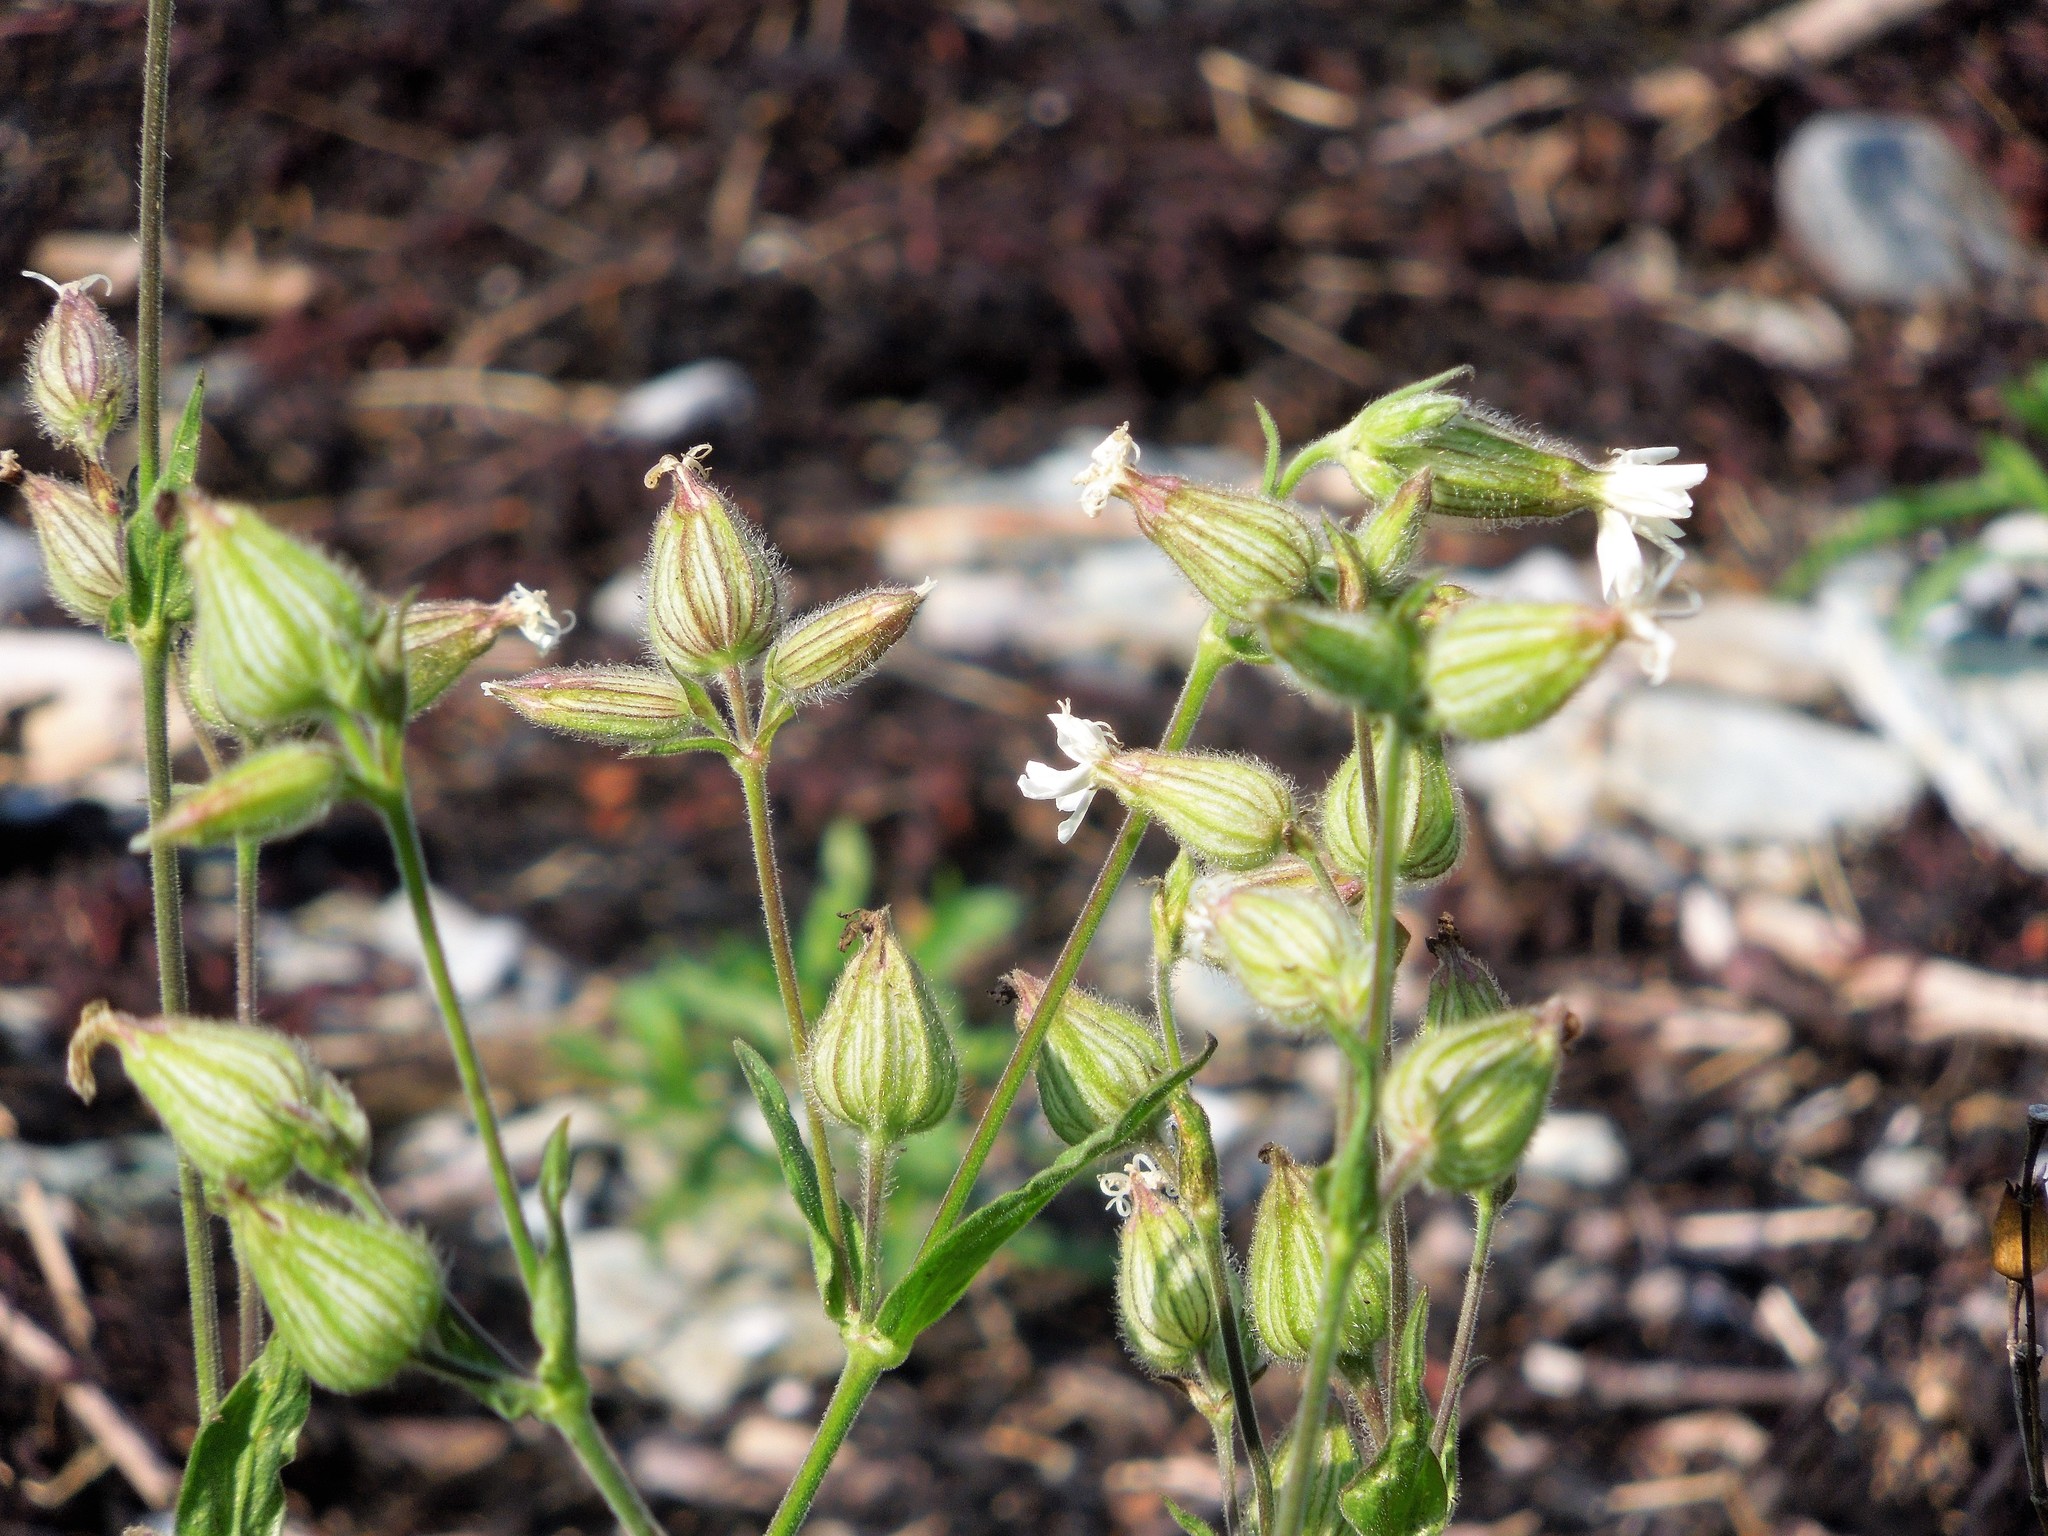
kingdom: Plantae
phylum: Tracheophyta
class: Magnoliopsida
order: Caryophyllales
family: Caryophyllaceae
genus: Silene
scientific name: Silene latifolia
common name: White campion
